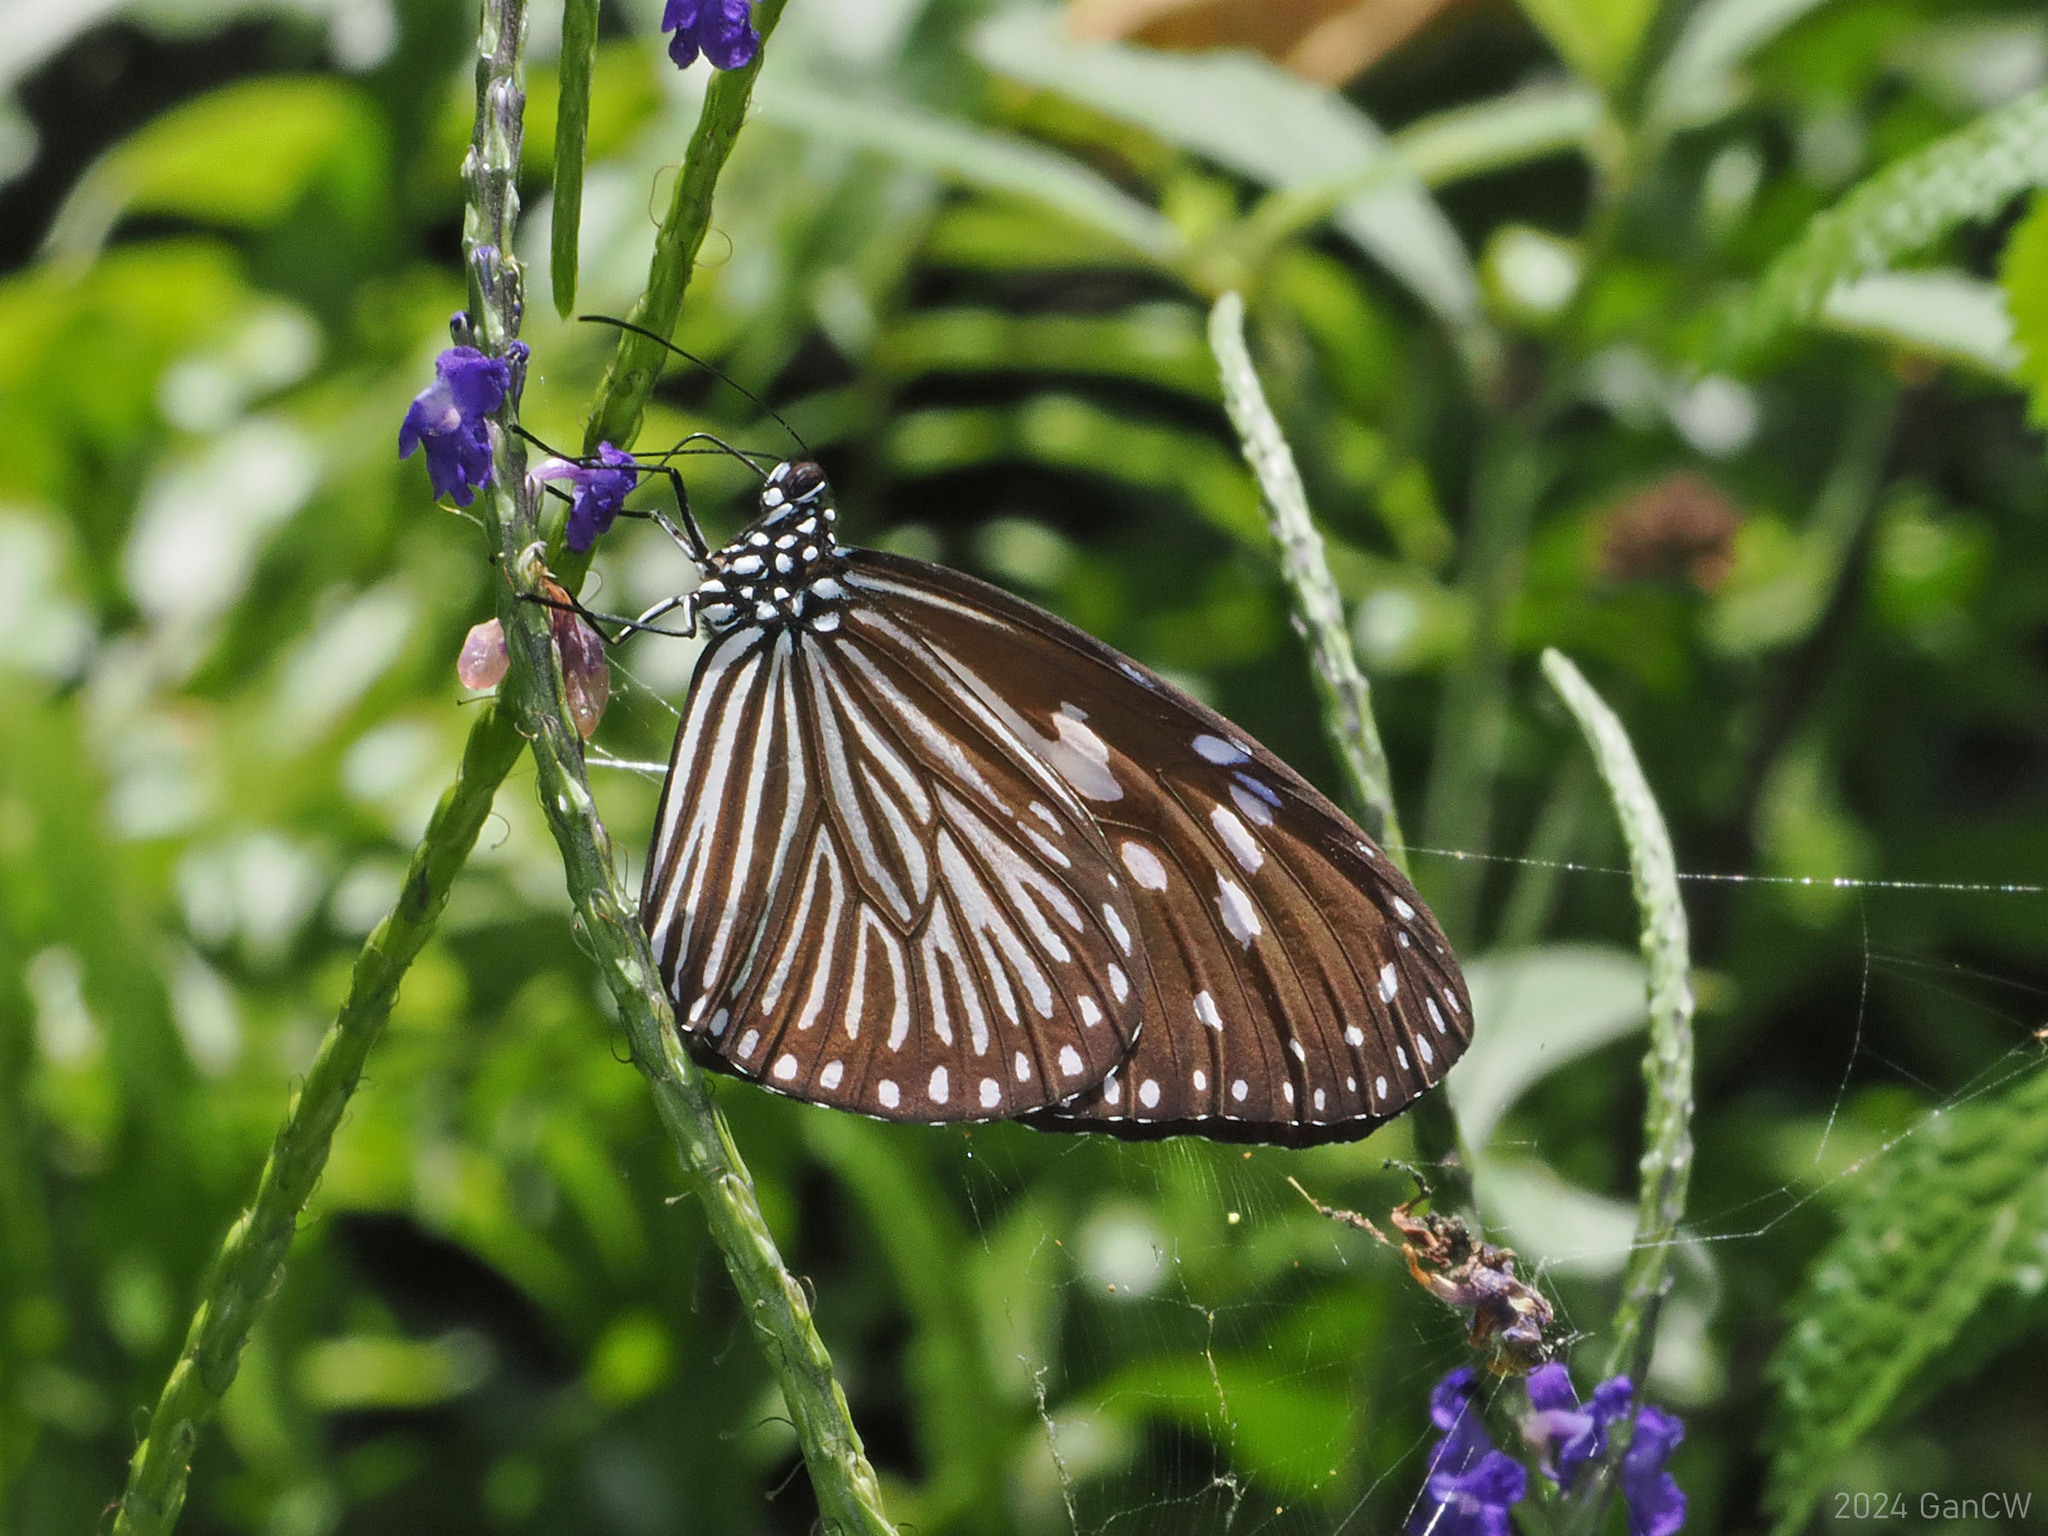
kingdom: Animalia
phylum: Arthropoda
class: Insecta
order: Lepidoptera
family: Nymphalidae
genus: Euploea
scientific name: Euploea mulciber
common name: Striped blue crow butterfly
